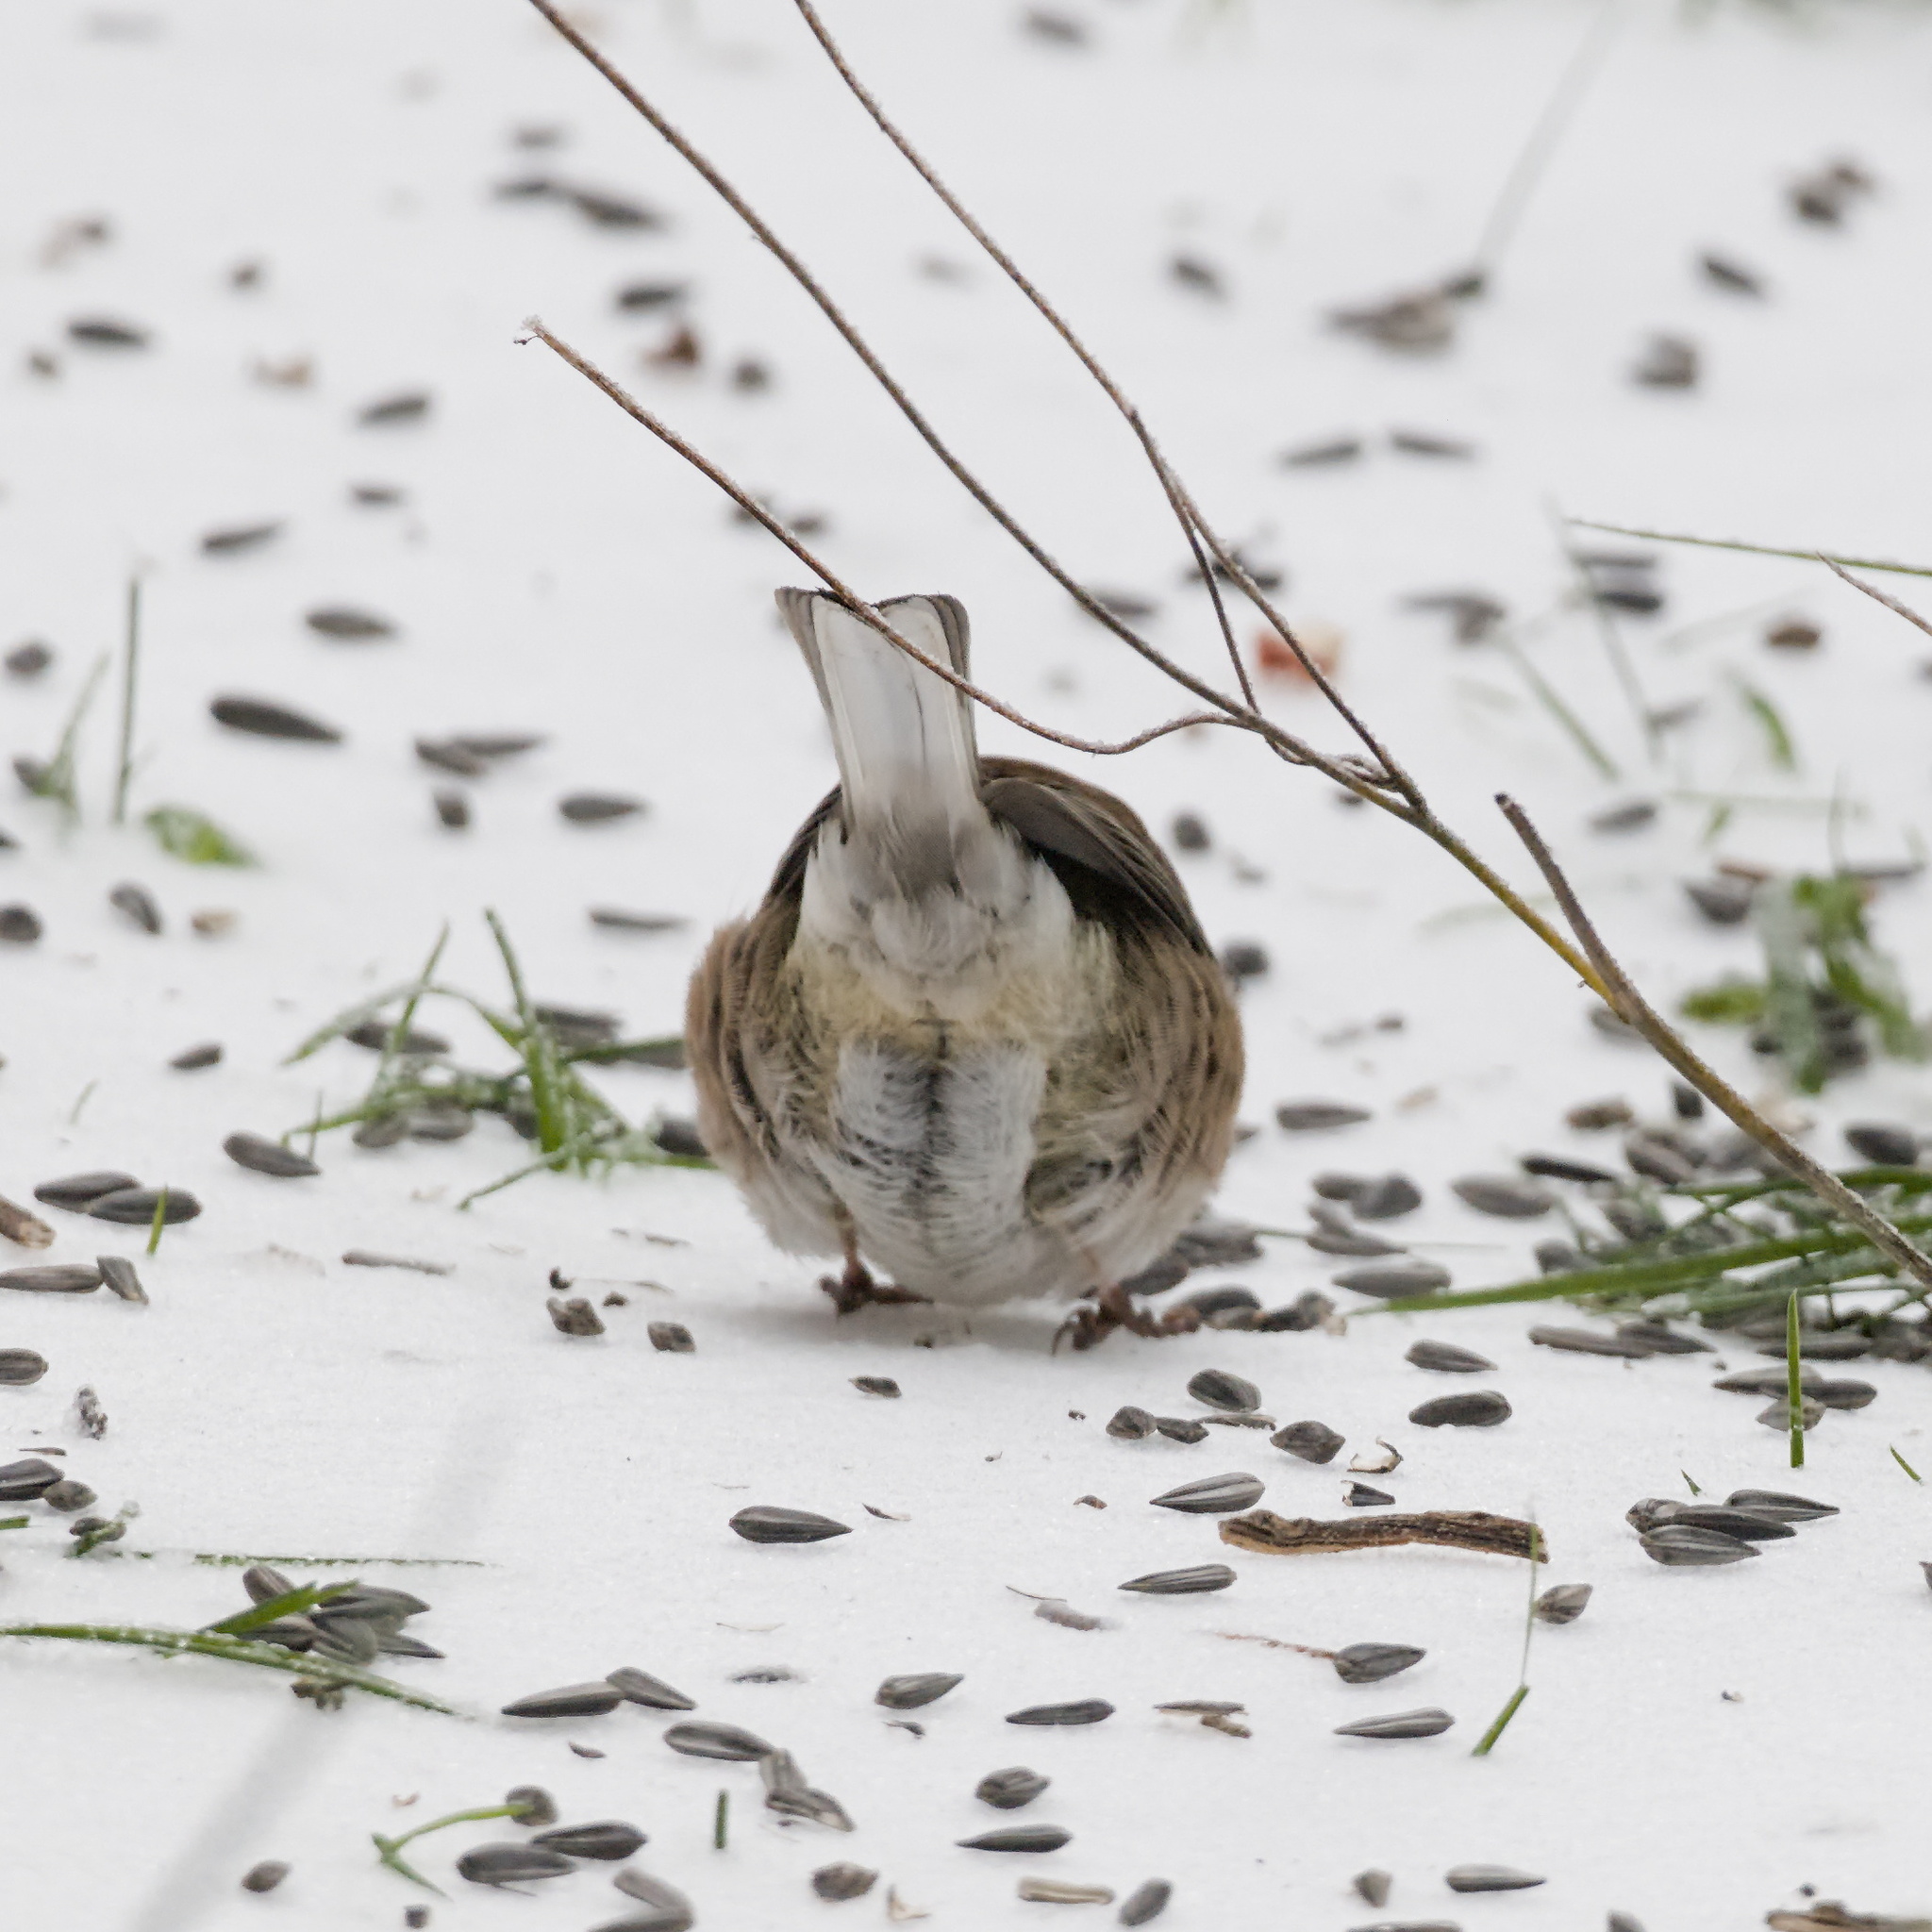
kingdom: Animalia
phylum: Chordata
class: Aves
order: Passeriformes
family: Passerellidae
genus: Junco
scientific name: Junco hyemalis
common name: Dark-eyed junco
